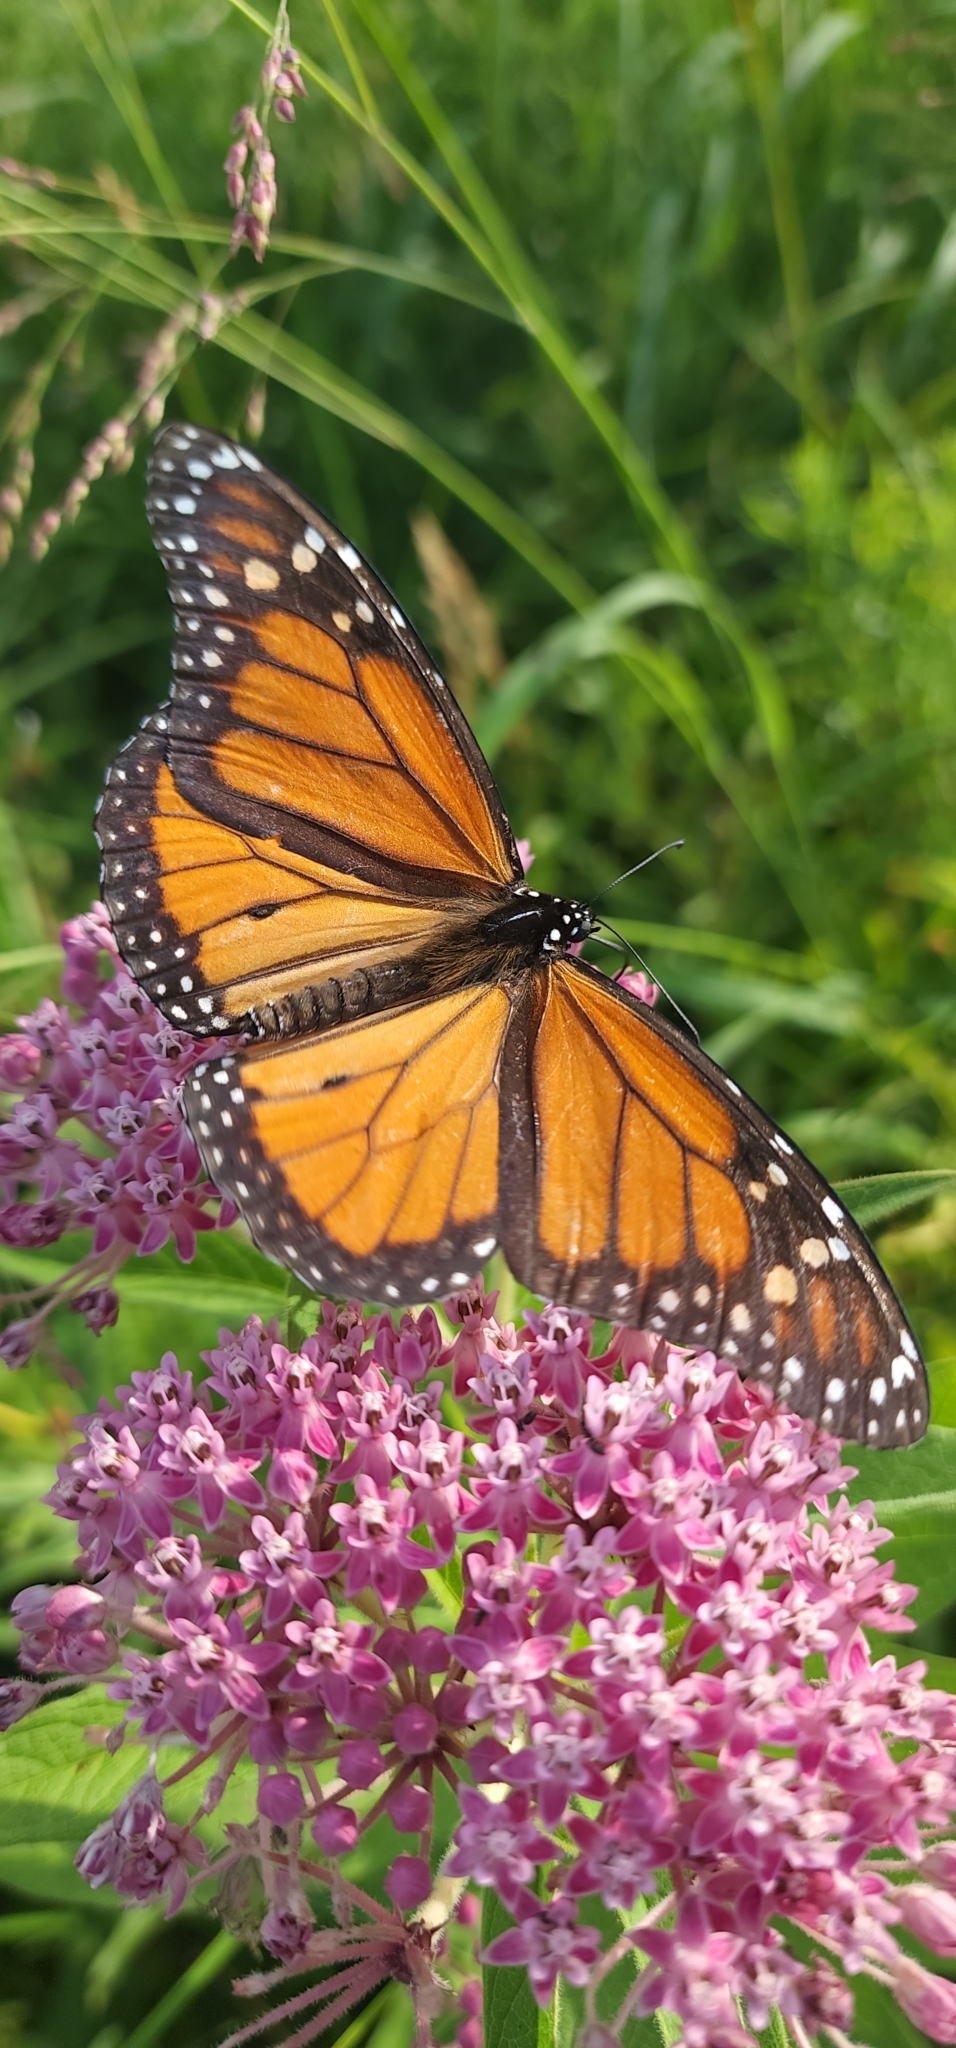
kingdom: Animalia
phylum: Arthropoda
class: Insecta
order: Lepidoptera
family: Nymphalidae
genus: Danaus
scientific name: Danaus plexippus
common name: Monarch
